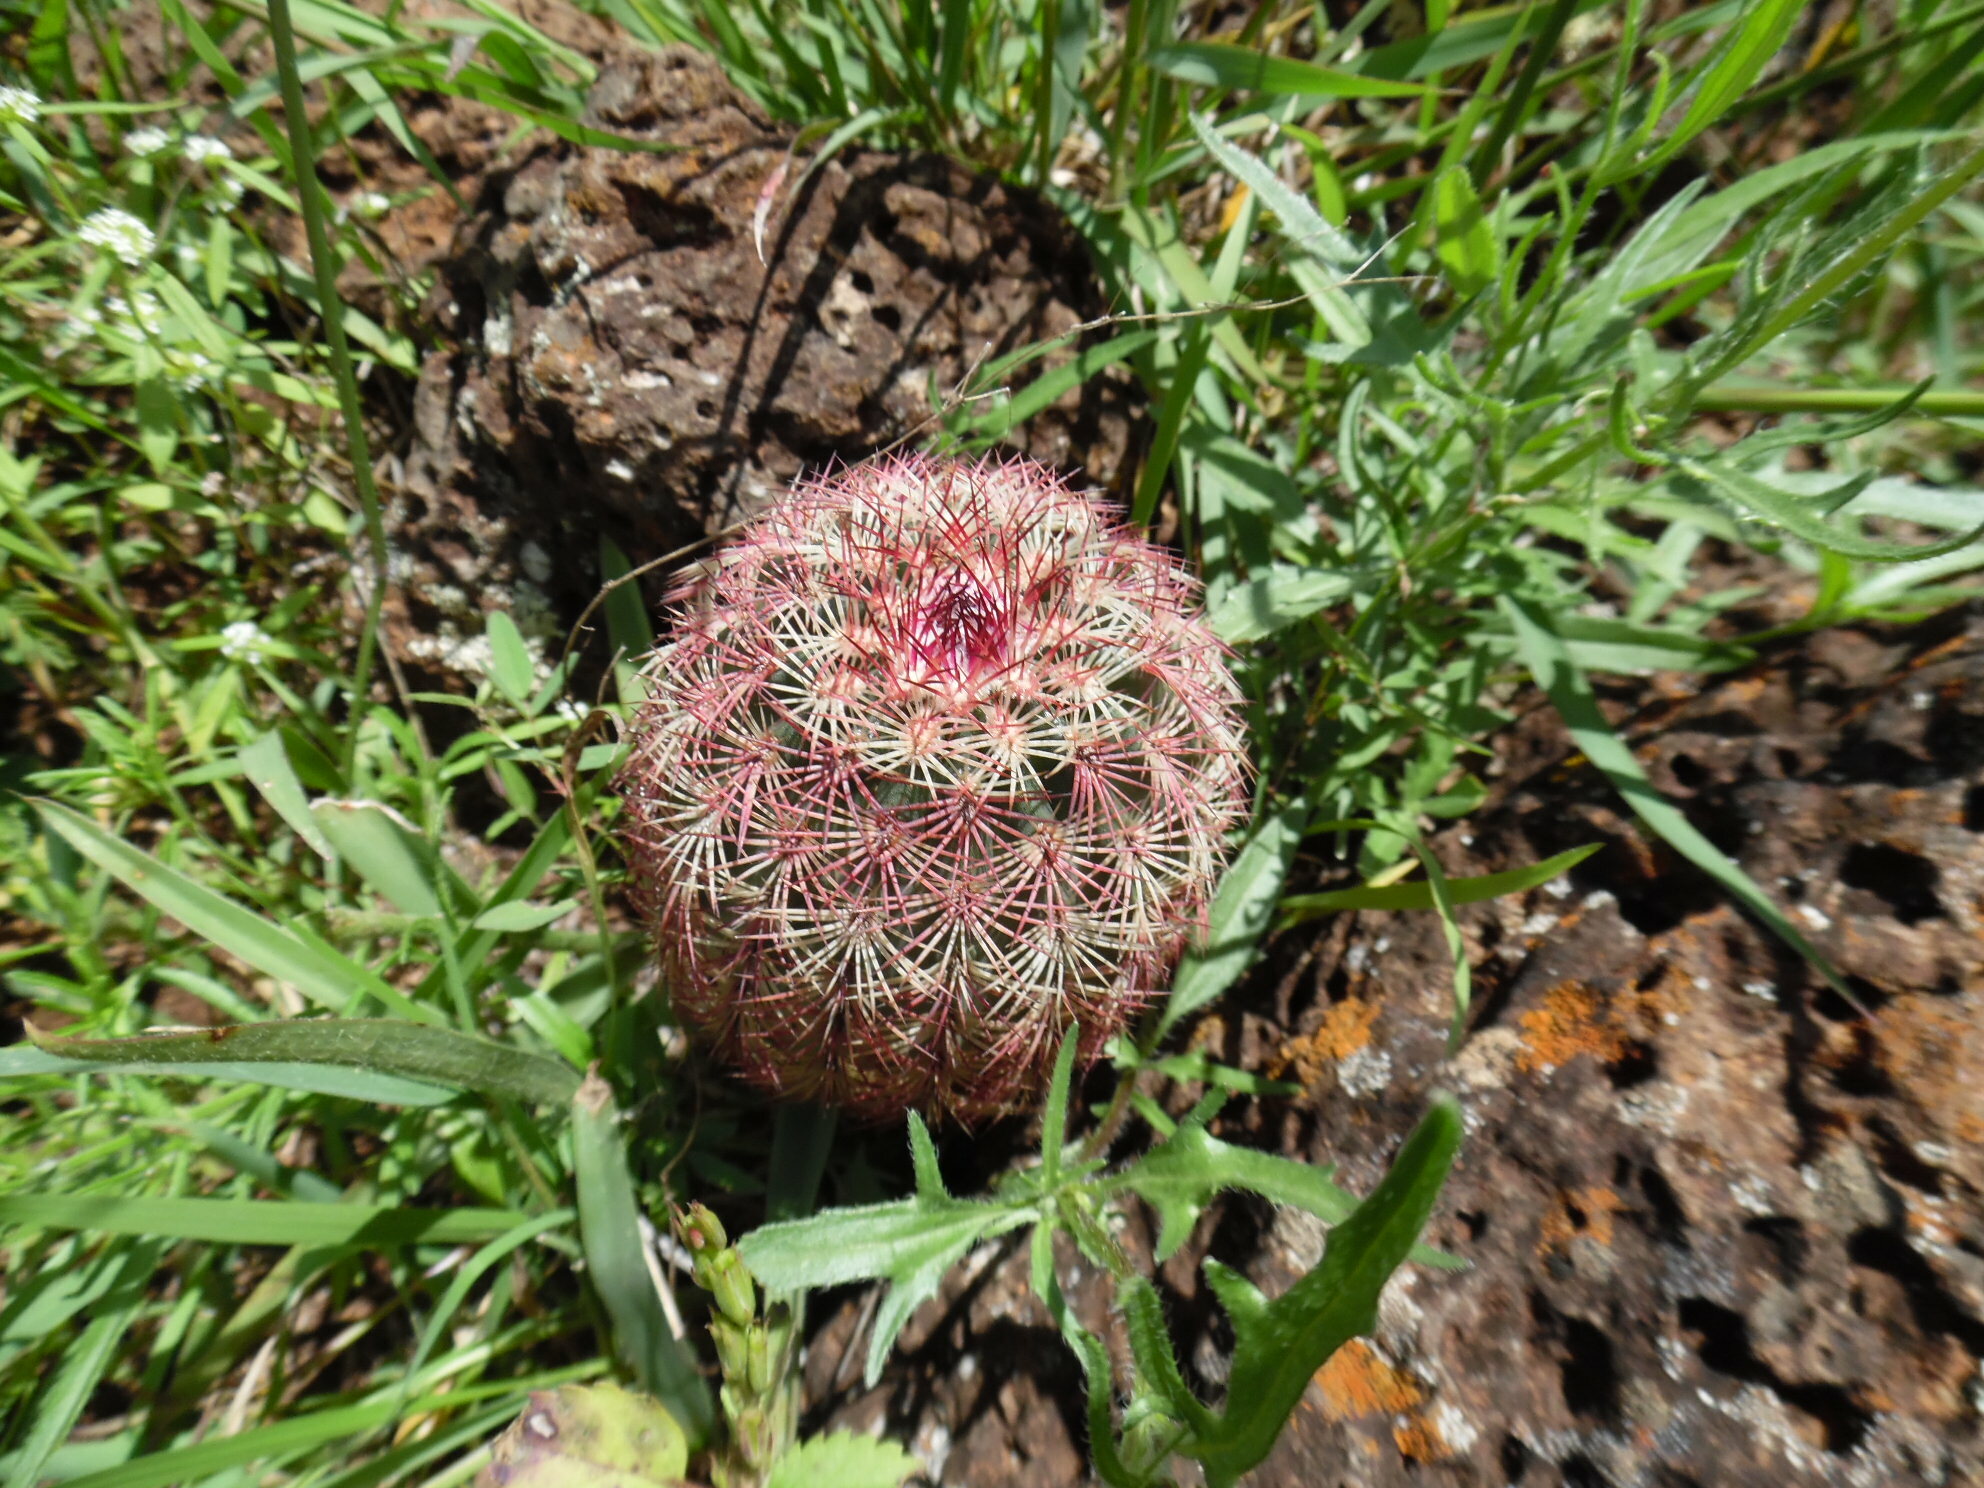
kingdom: Plantae
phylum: Tracheophyta
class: Magnoliopsida
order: Caryophyllales
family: Cactaceae
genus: Echinocereus
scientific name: Echinocereus pectinatus
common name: Rainbow cactus
